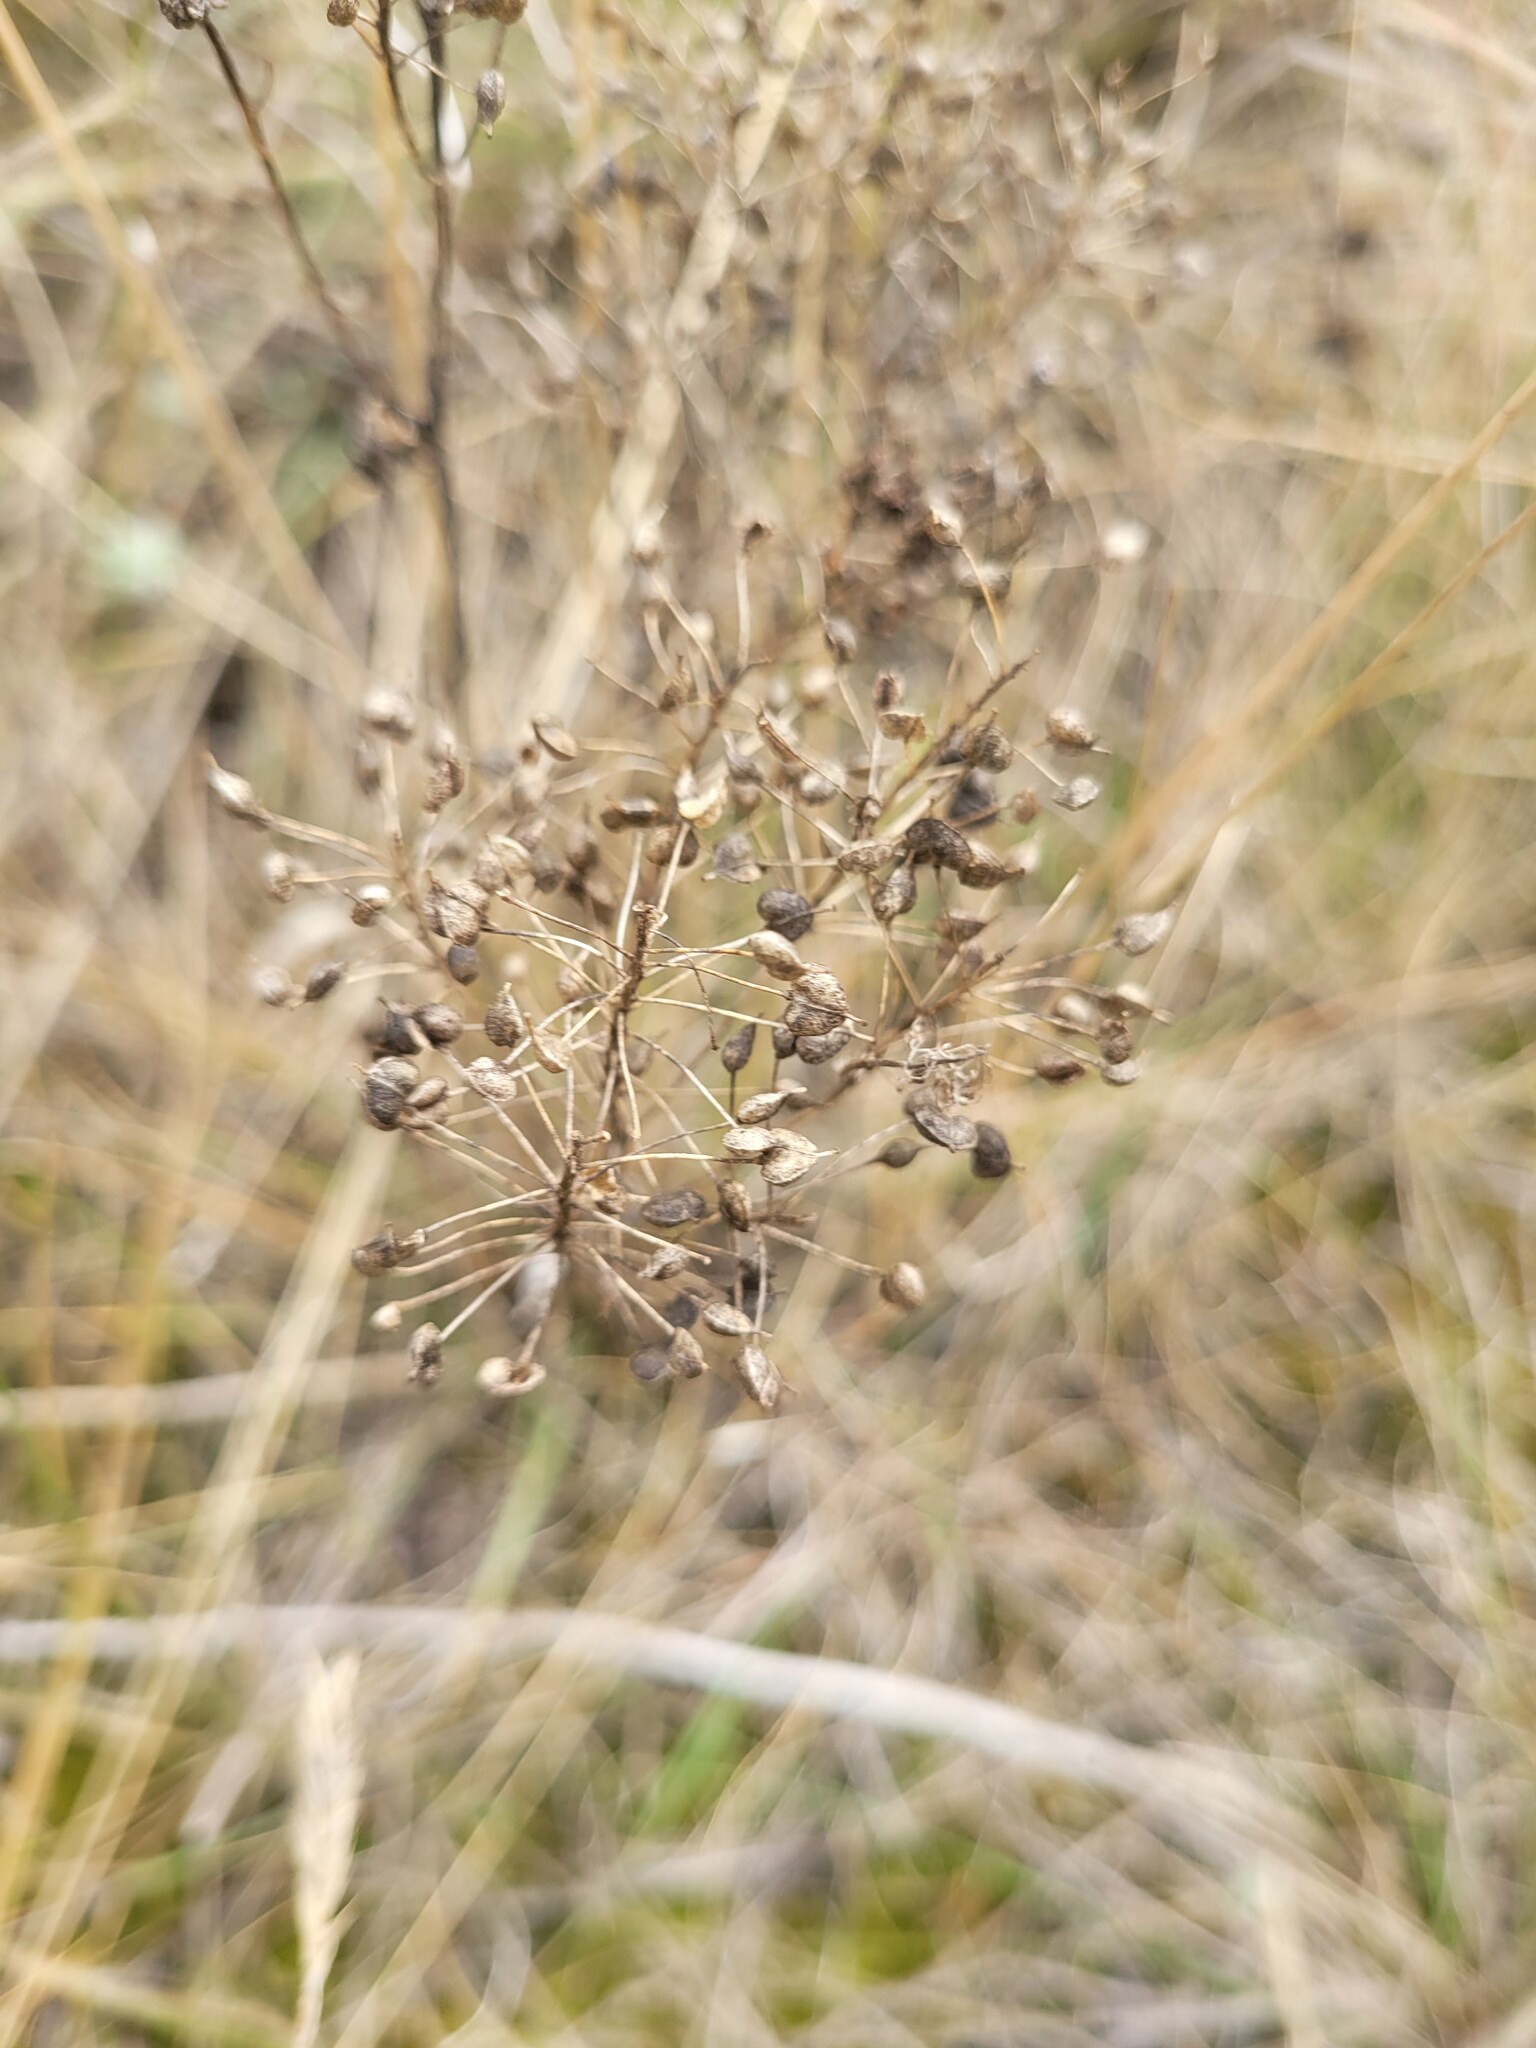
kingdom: Plantae
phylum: Tracheophyta
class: Magnoliopsida
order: Brassicales
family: Brassicaceae
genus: Lepidium
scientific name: Lepidium draba
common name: Hoary cress
